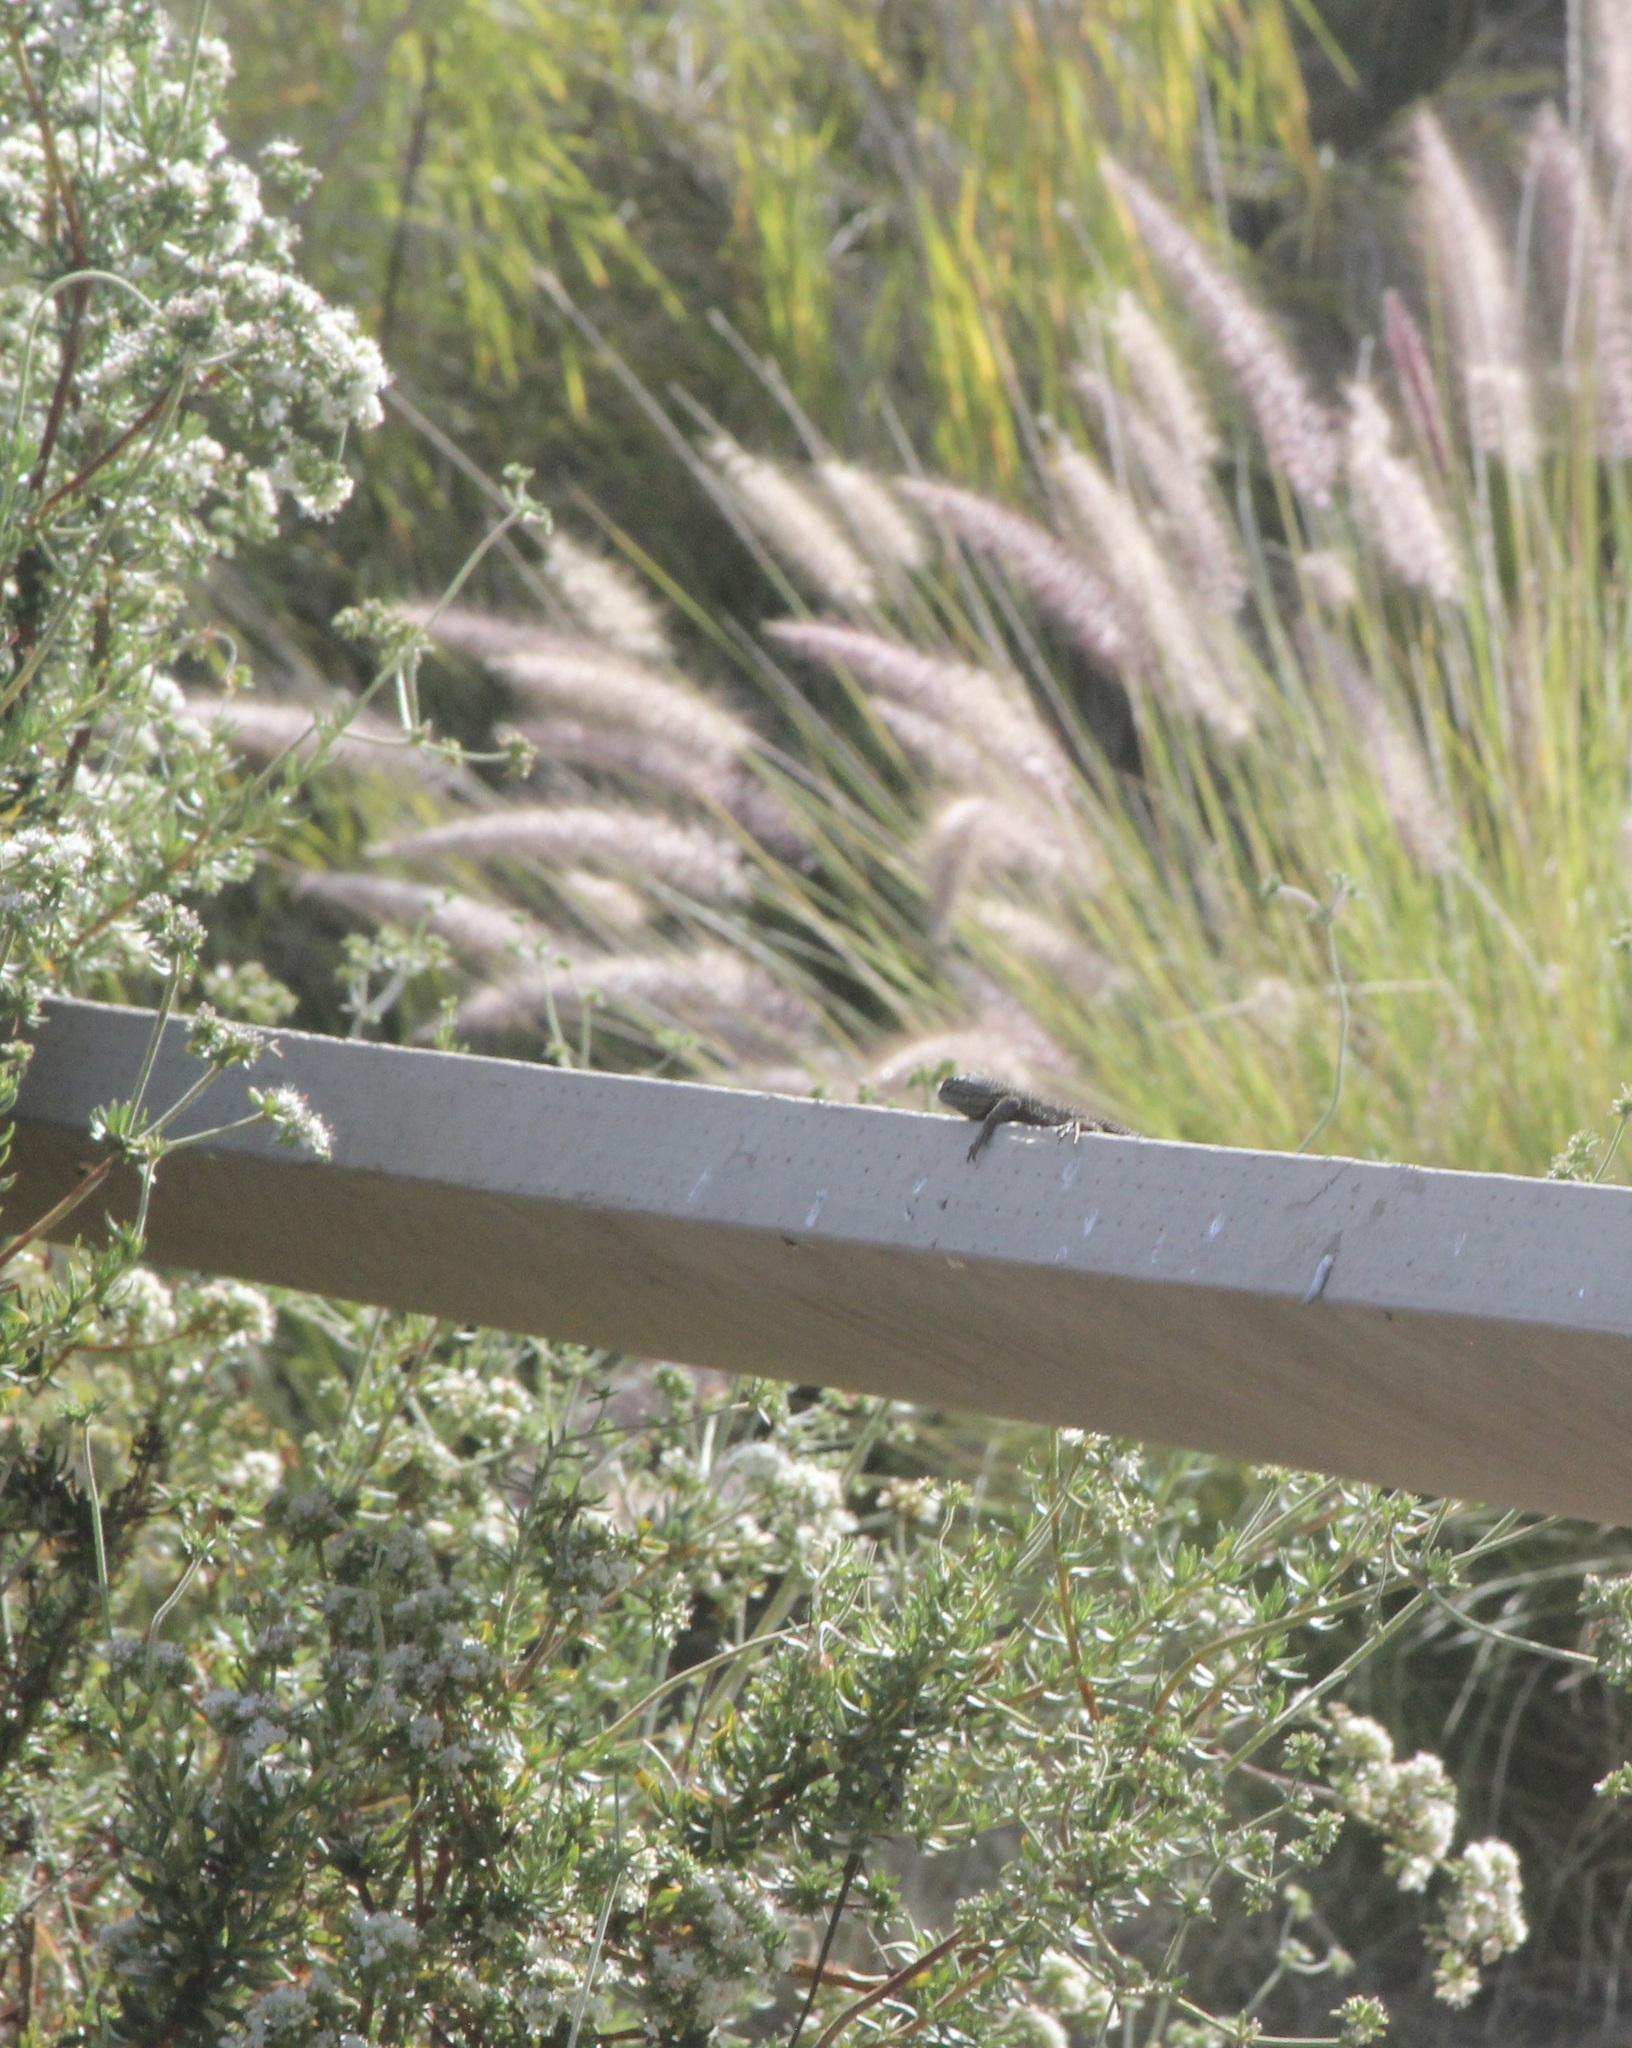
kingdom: Animalia
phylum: Chordata
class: Squamata
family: Phrynosomatidae
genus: Sceloporus
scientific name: Sceloporus occidentalis
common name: Western fence lizard
